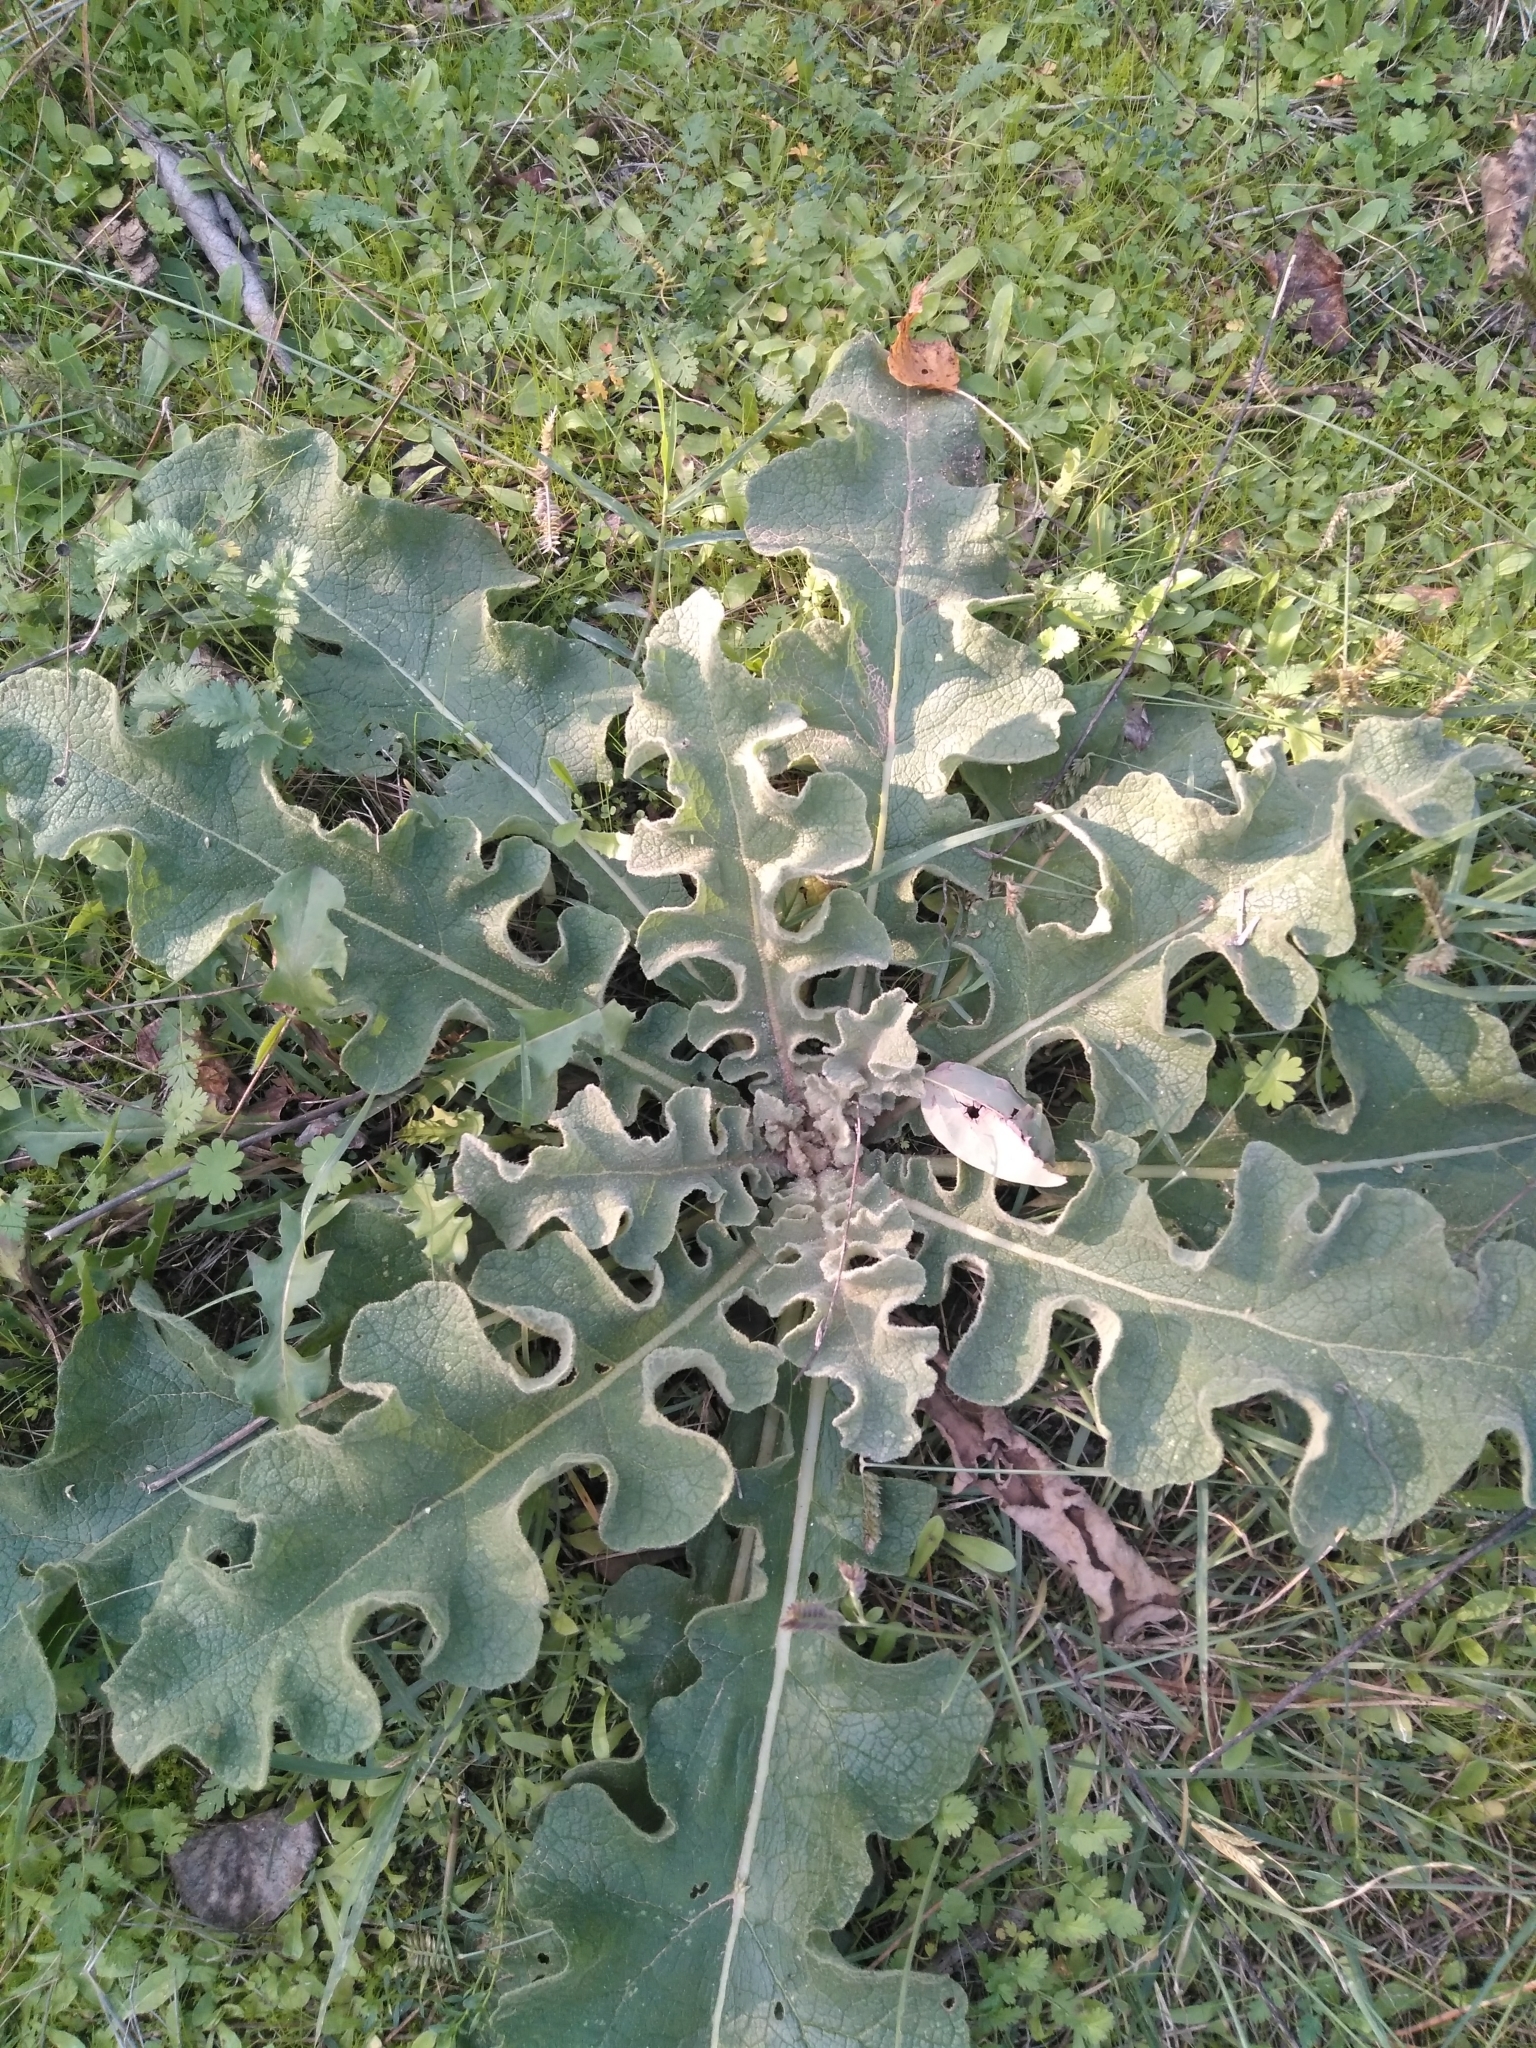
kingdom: Plantae
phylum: Tracheophyta
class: Magnoliopsida
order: Lamiales
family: Scrophulariaceae
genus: Verbascum
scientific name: Verbascum sinuatum
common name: Wavyleaf mullein
